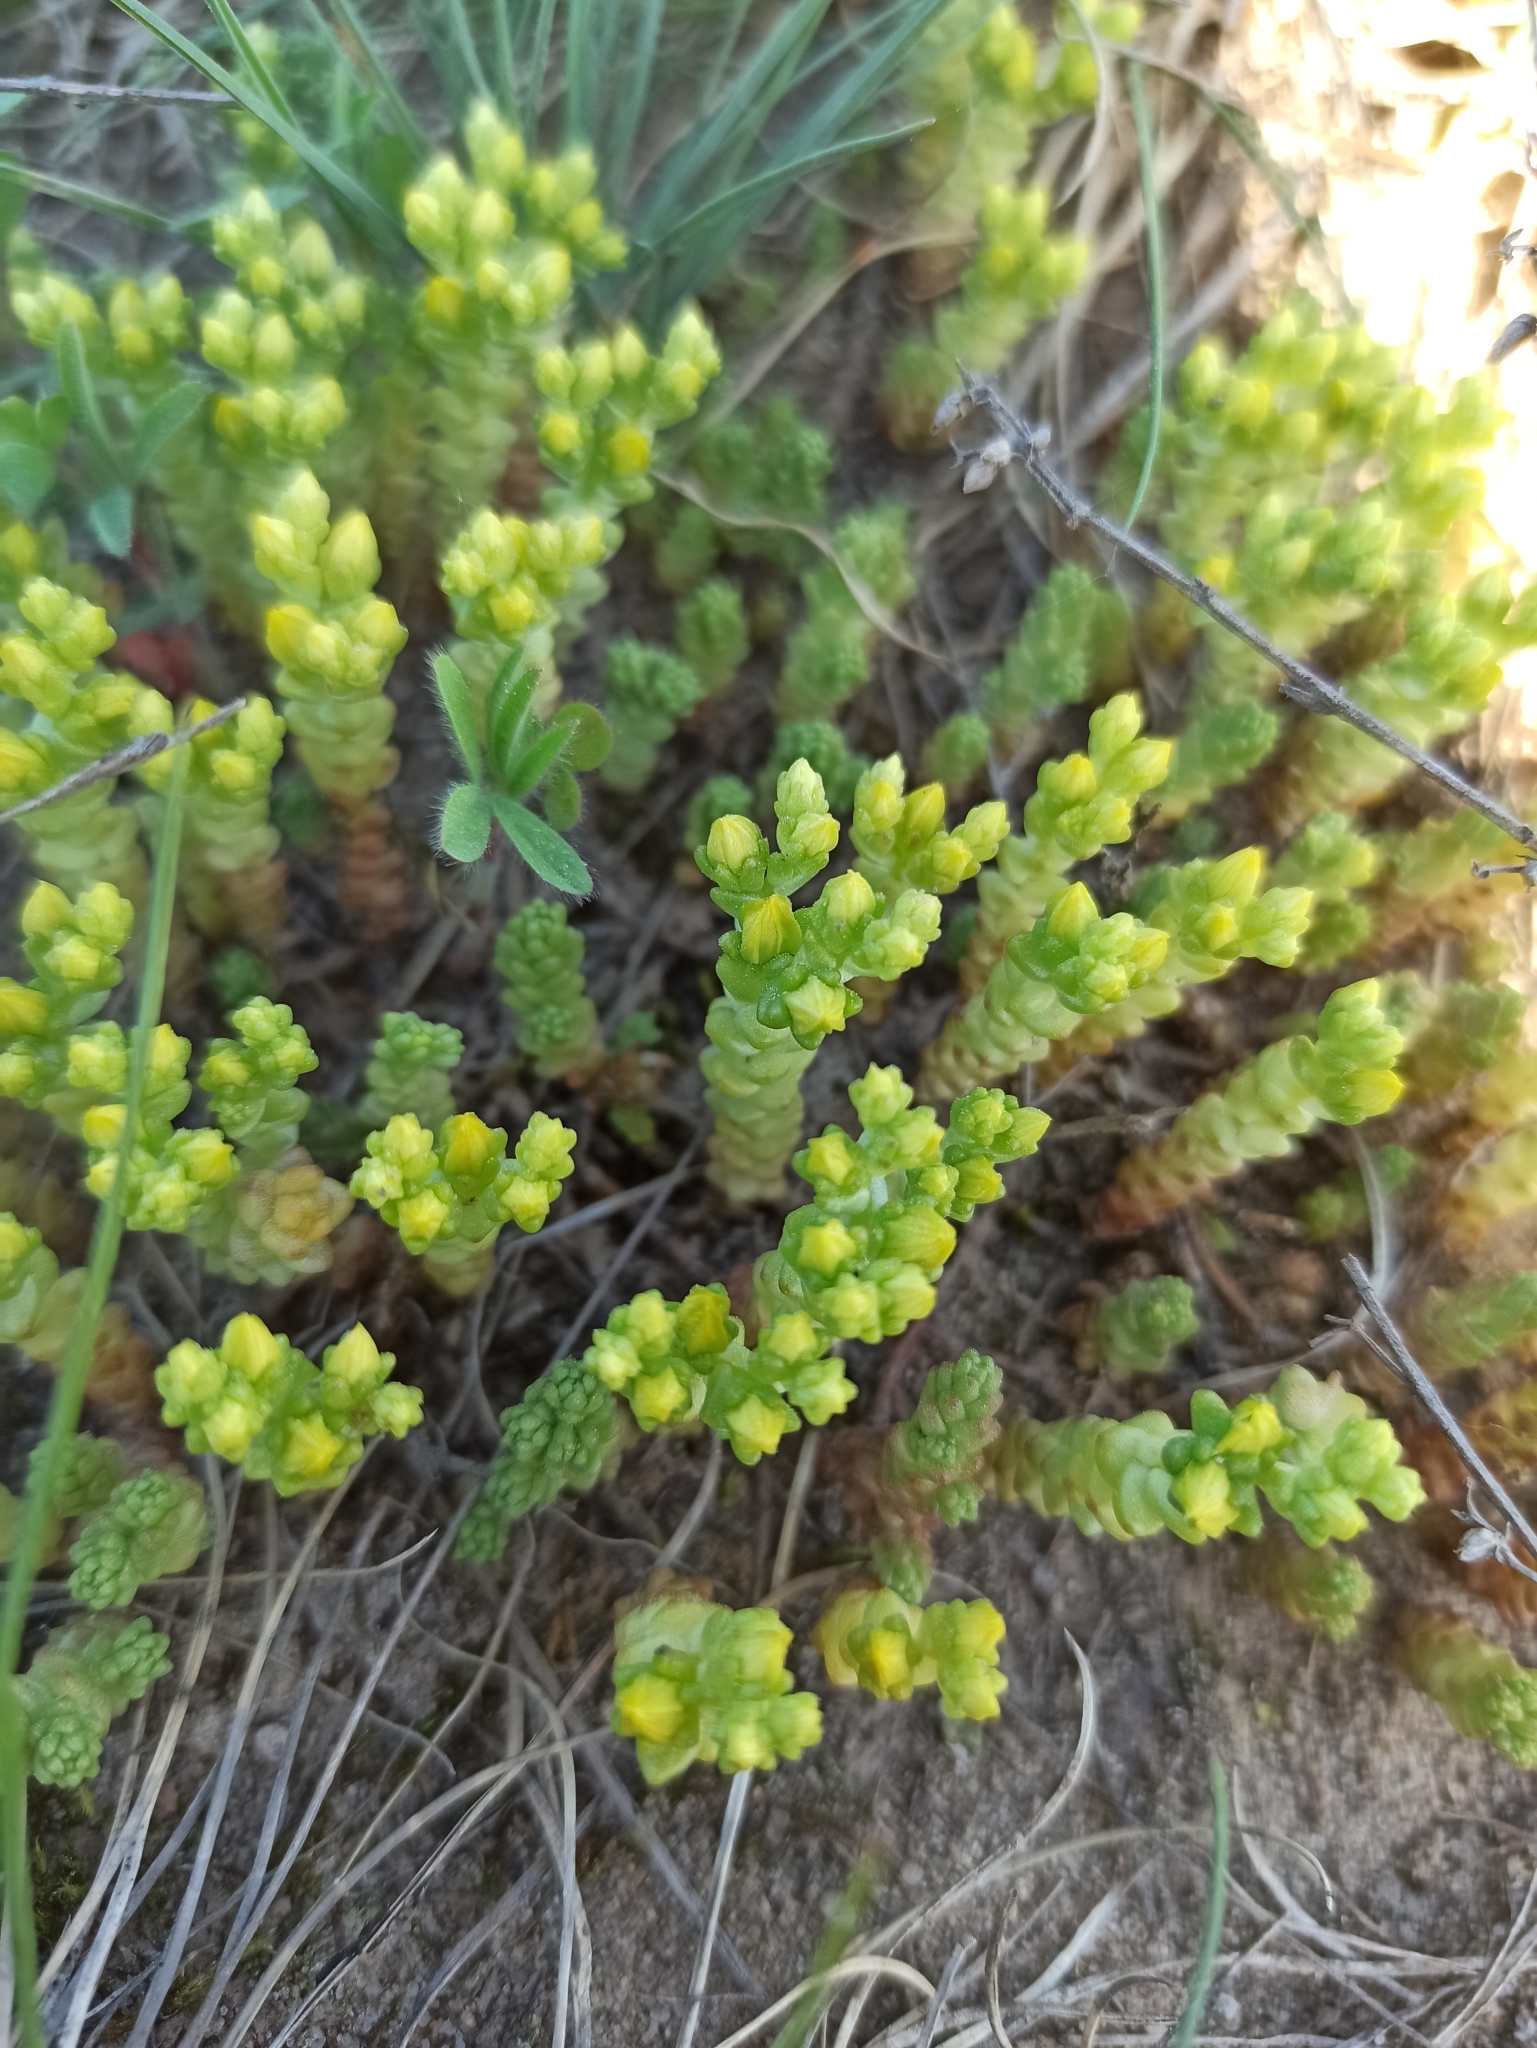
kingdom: Plantae
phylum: Tracheophyta
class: Magnoliopsida
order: Saxifragales
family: Crassulaceae
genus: Sedum
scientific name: Sedum acre
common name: Biting stonecrop
